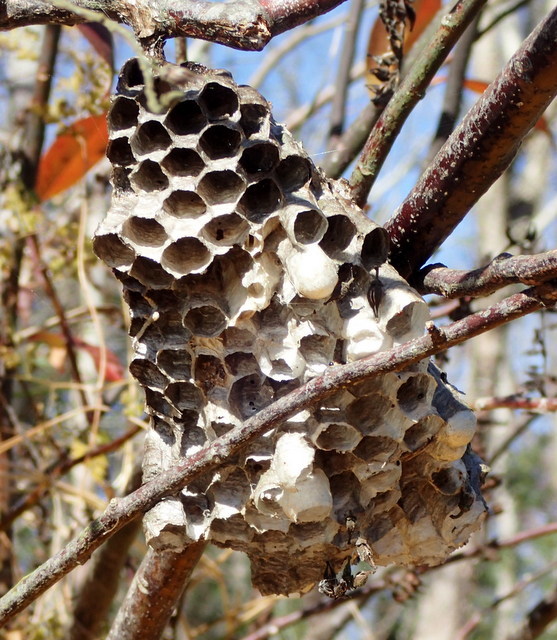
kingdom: Animalia
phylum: Arthropoda
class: Insecta
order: Hymenoptera
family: Pompilidae
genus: Aphanilopterus
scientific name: Aphanilopterus
